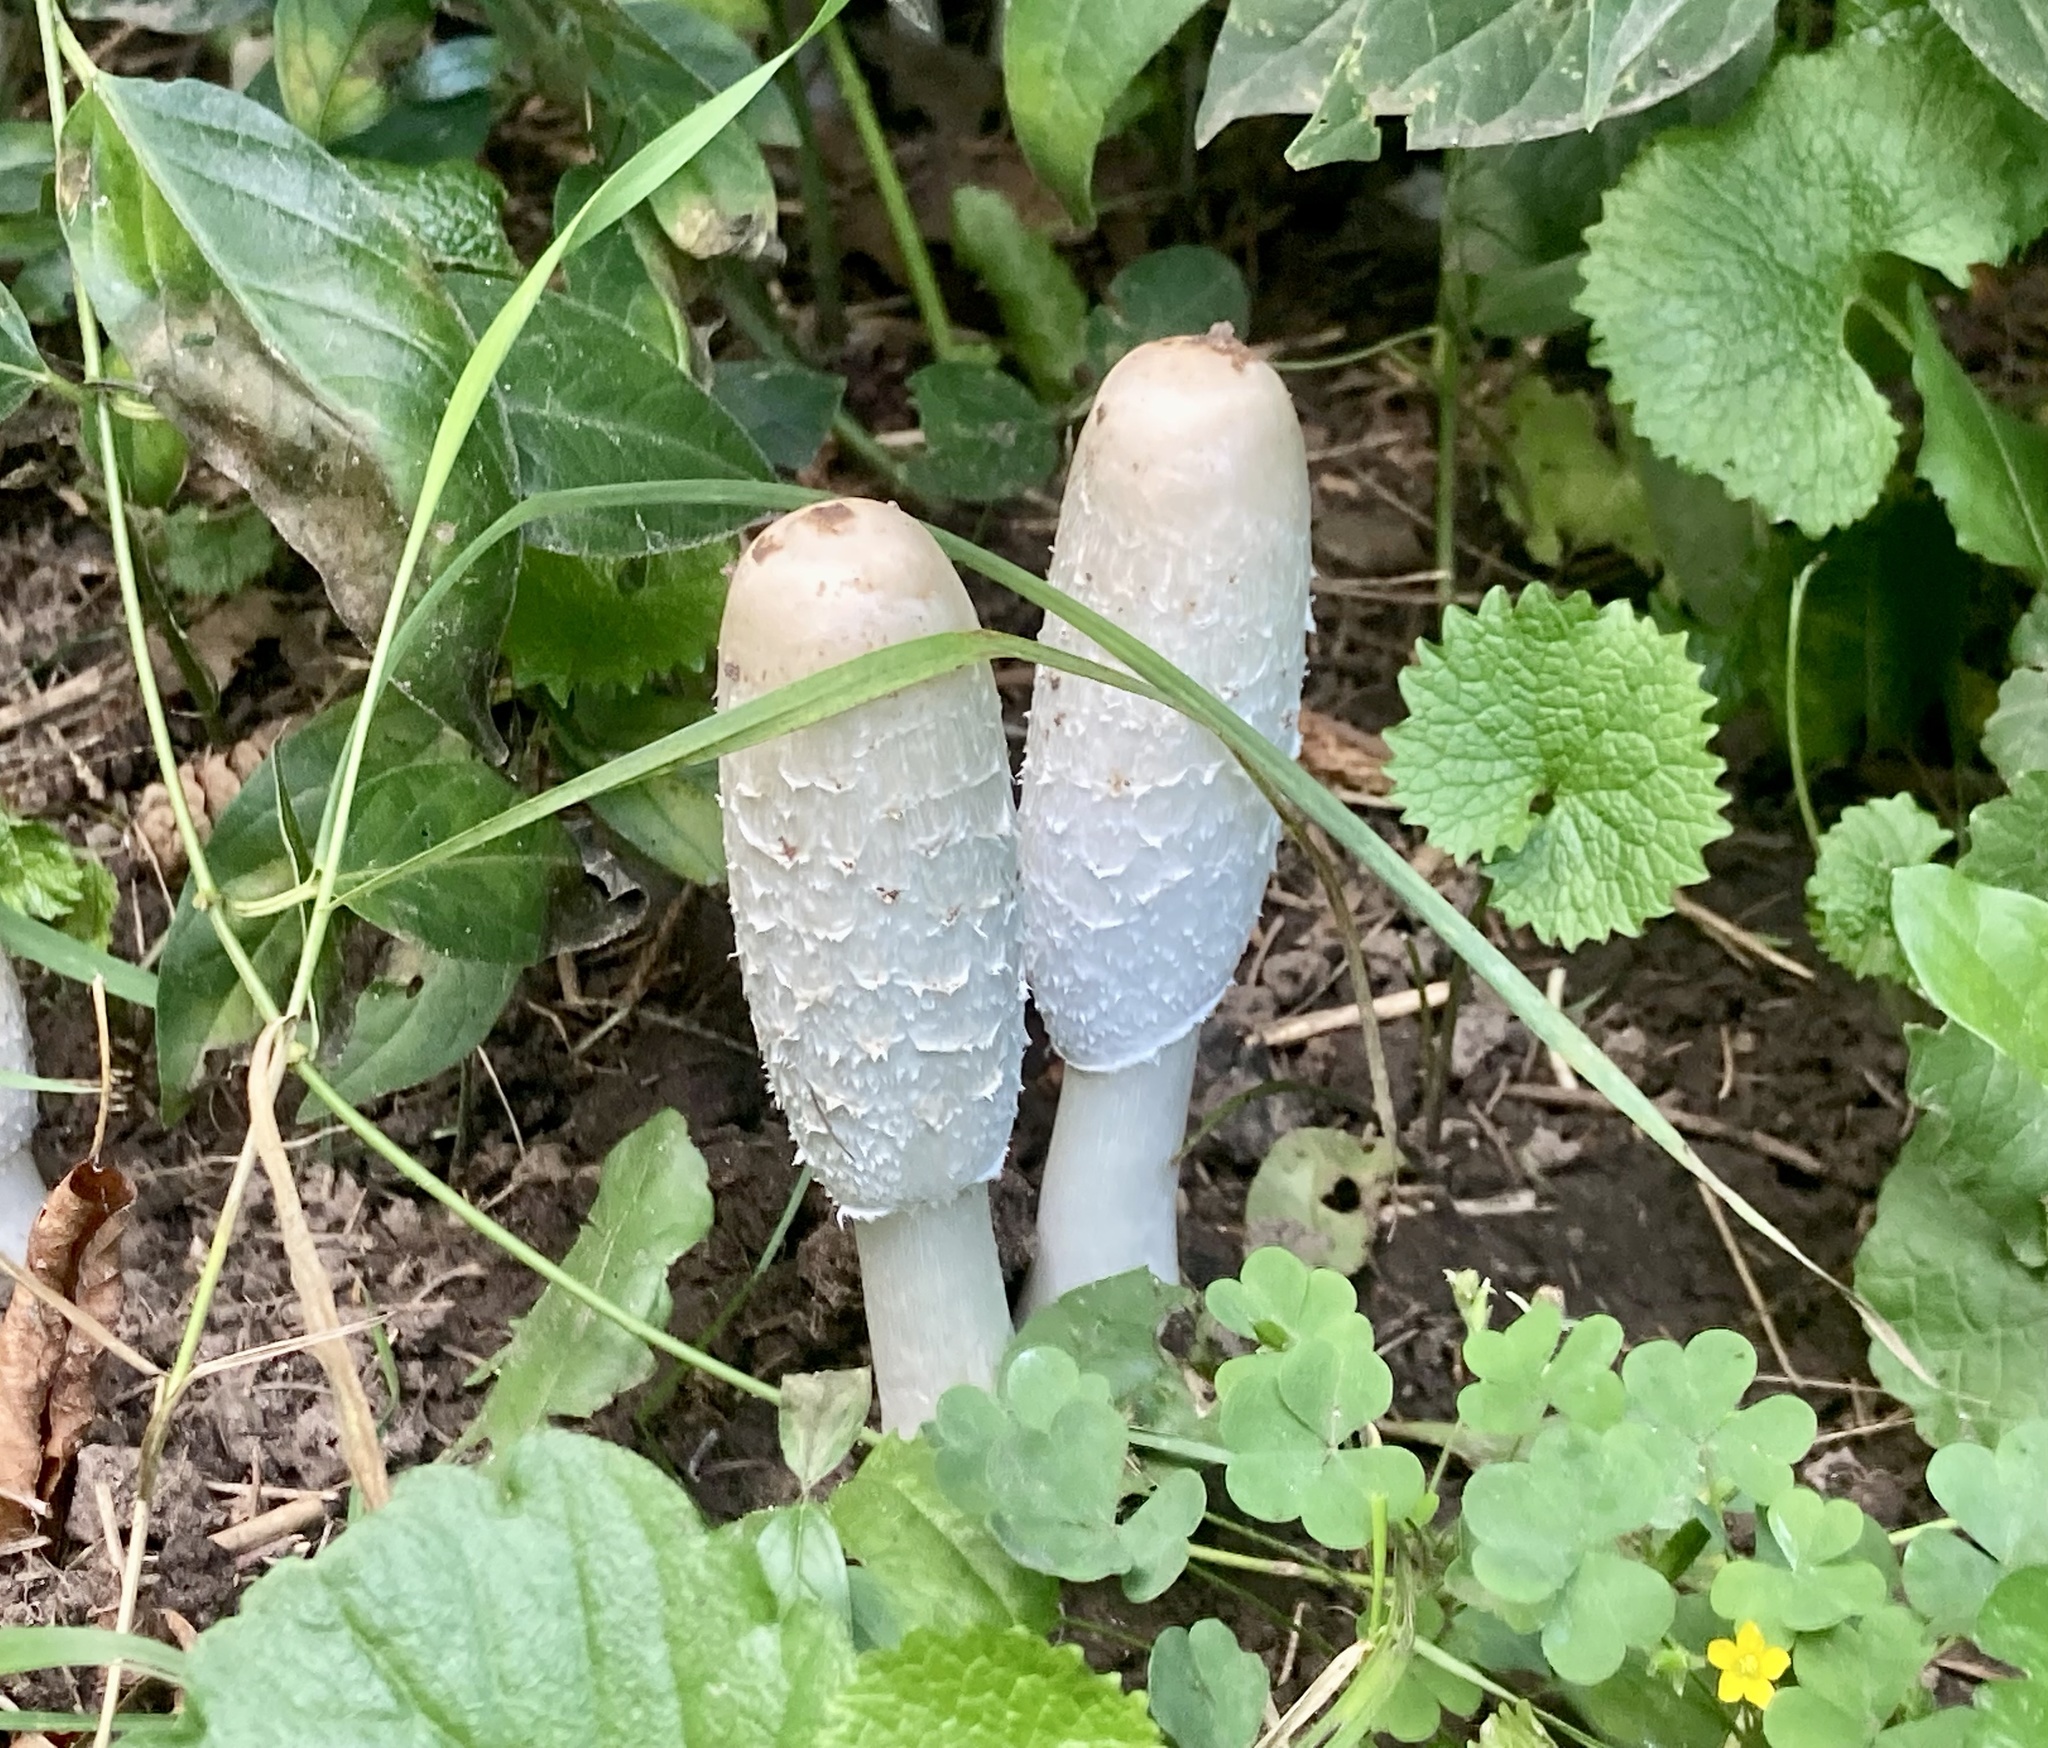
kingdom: Fungi
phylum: Basidiomycota
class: Agaricomycetes
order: Agaricales
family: Agaricaceae
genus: Coprinus
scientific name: Coprinus comatus
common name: Lawyer's wig
